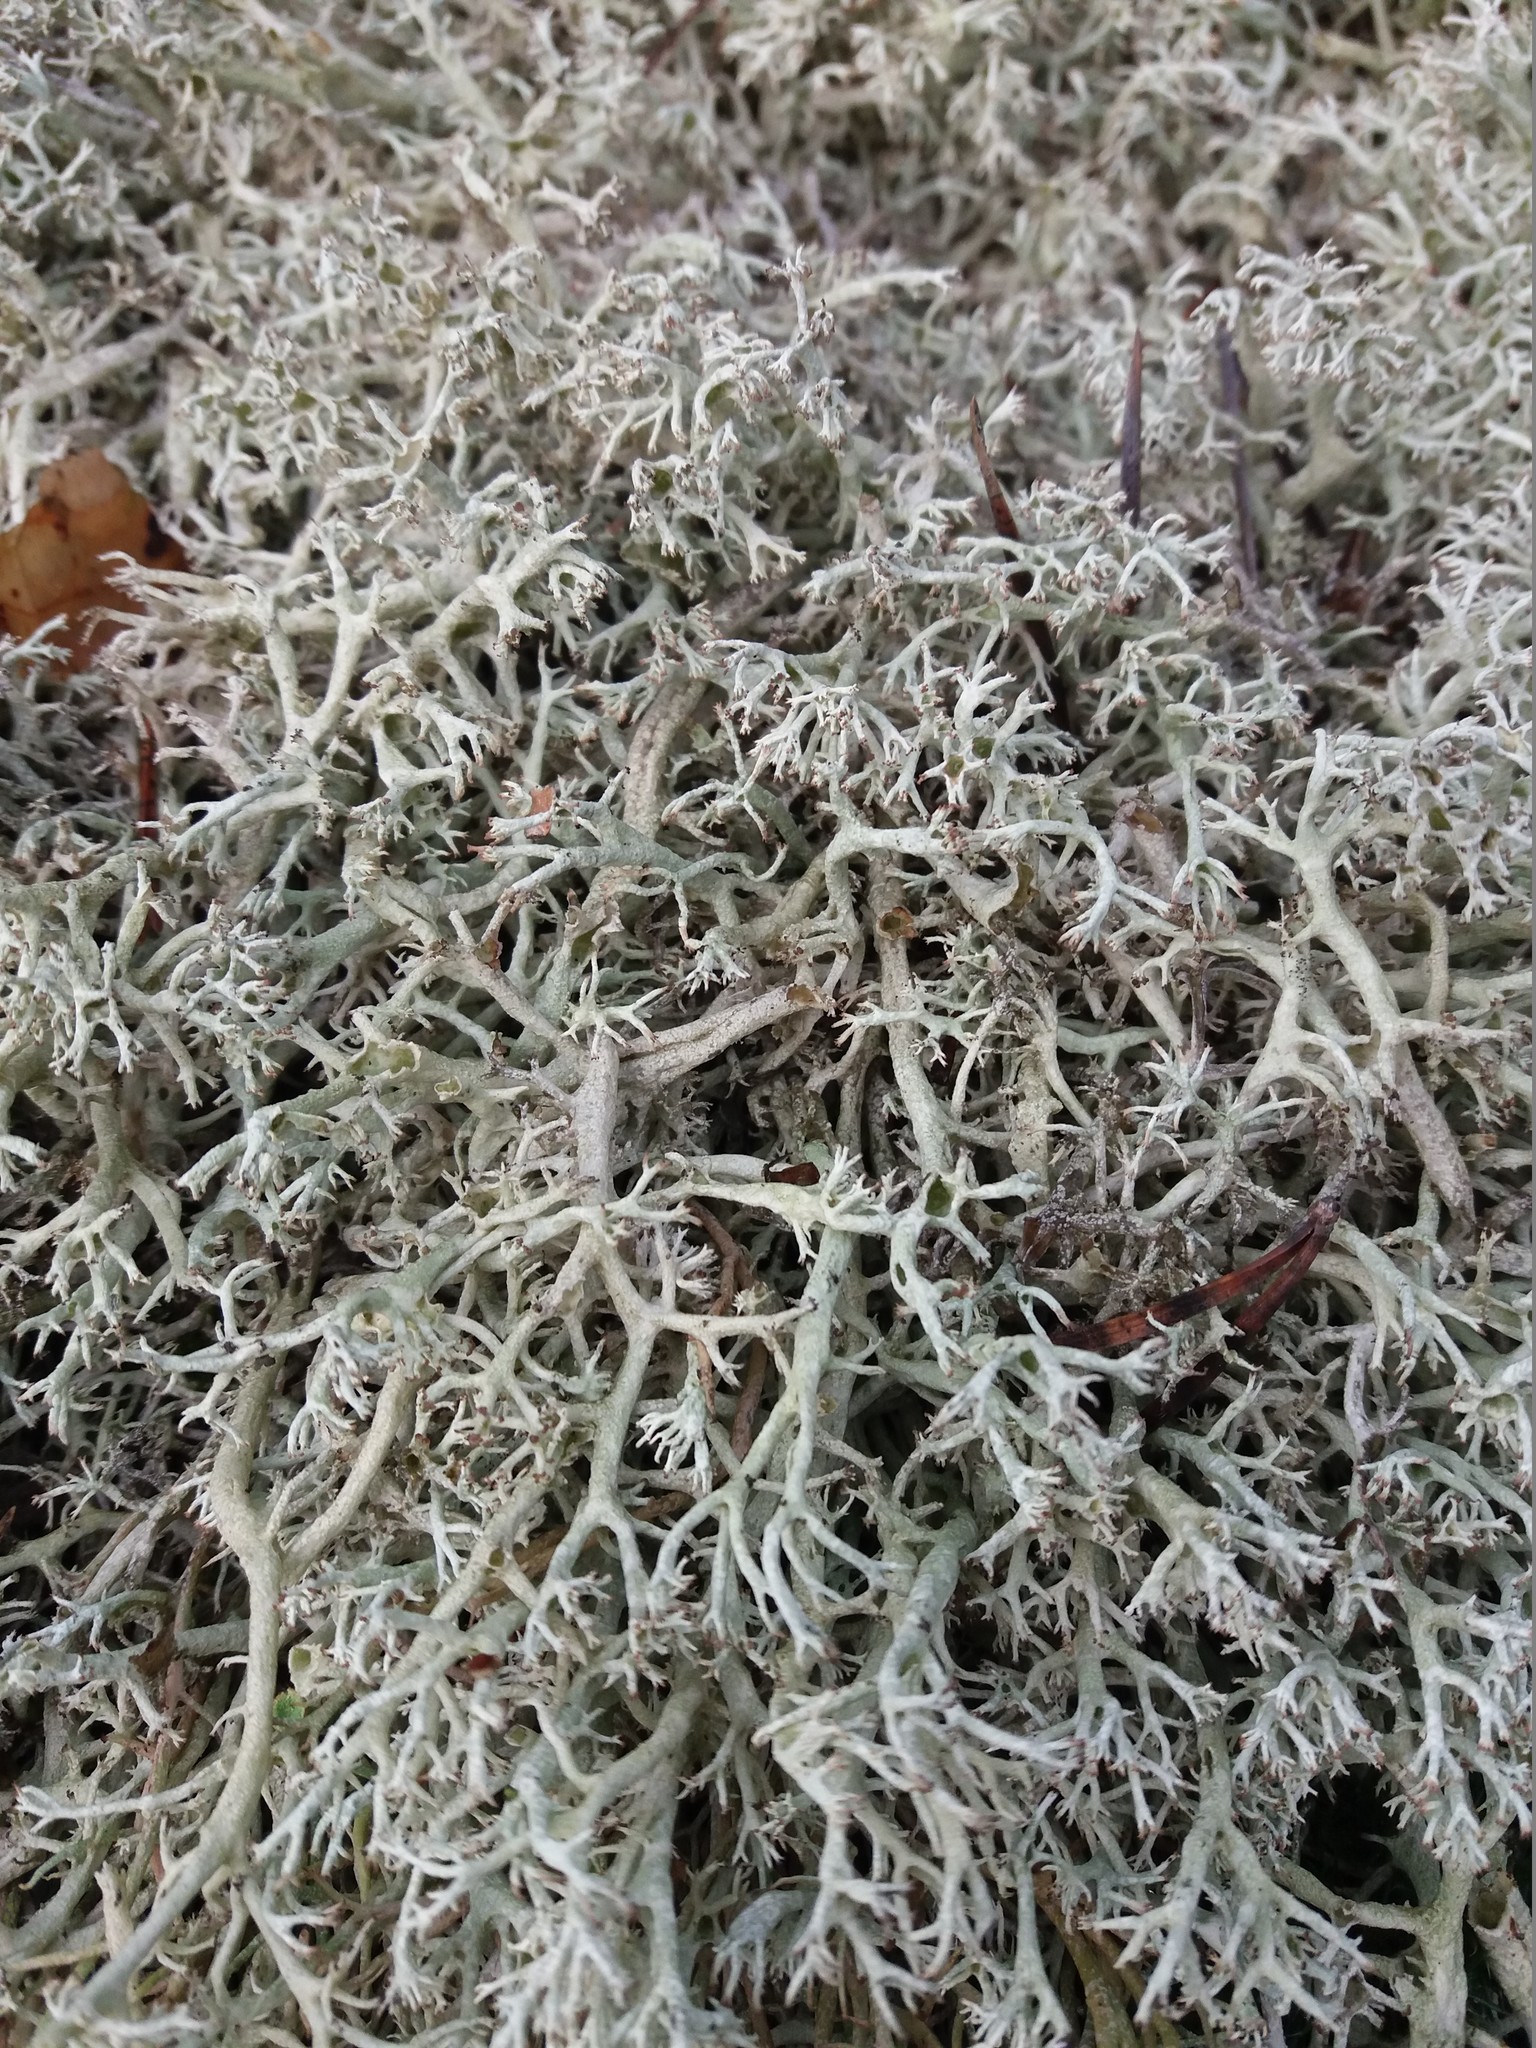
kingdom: Fungi
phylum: Ascomycota
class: Lecanoromycetes
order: Lecanorales
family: Cladoniaceae
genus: Cladonia
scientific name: Cladonia rangiferina
